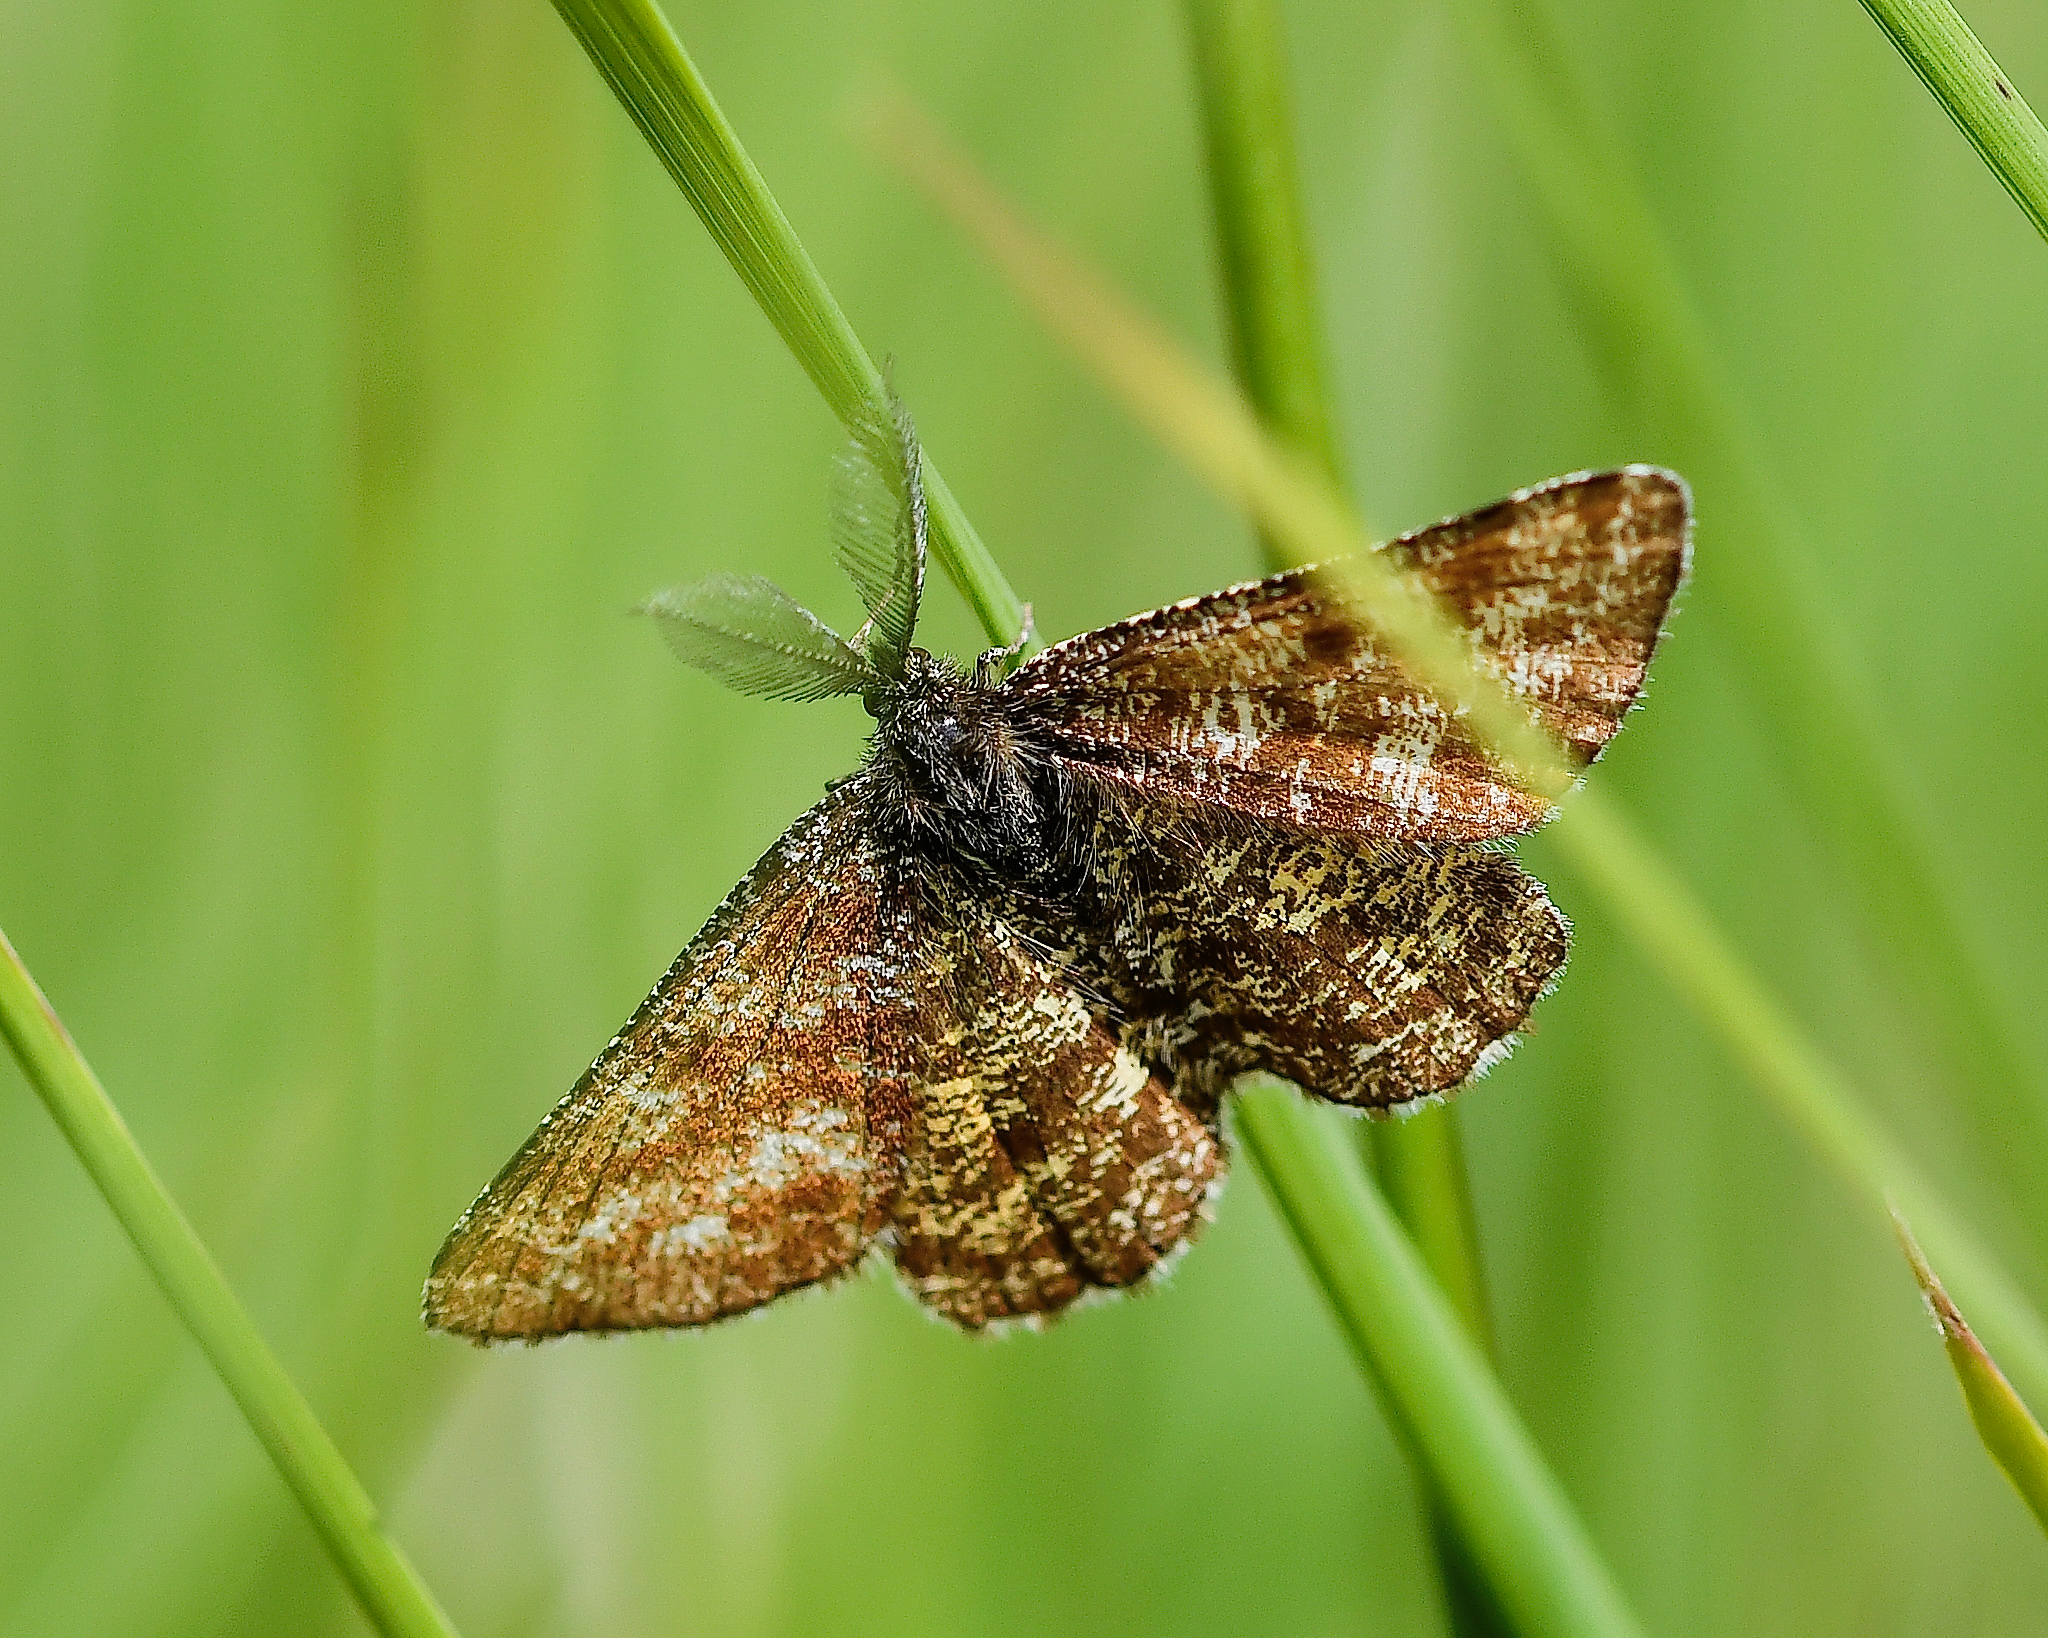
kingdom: Animalia
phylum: Arthropoda
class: Insecta
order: Lepidoptera
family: Geometridae
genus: Ematurga
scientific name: Ematurga atomaria
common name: Common heath
